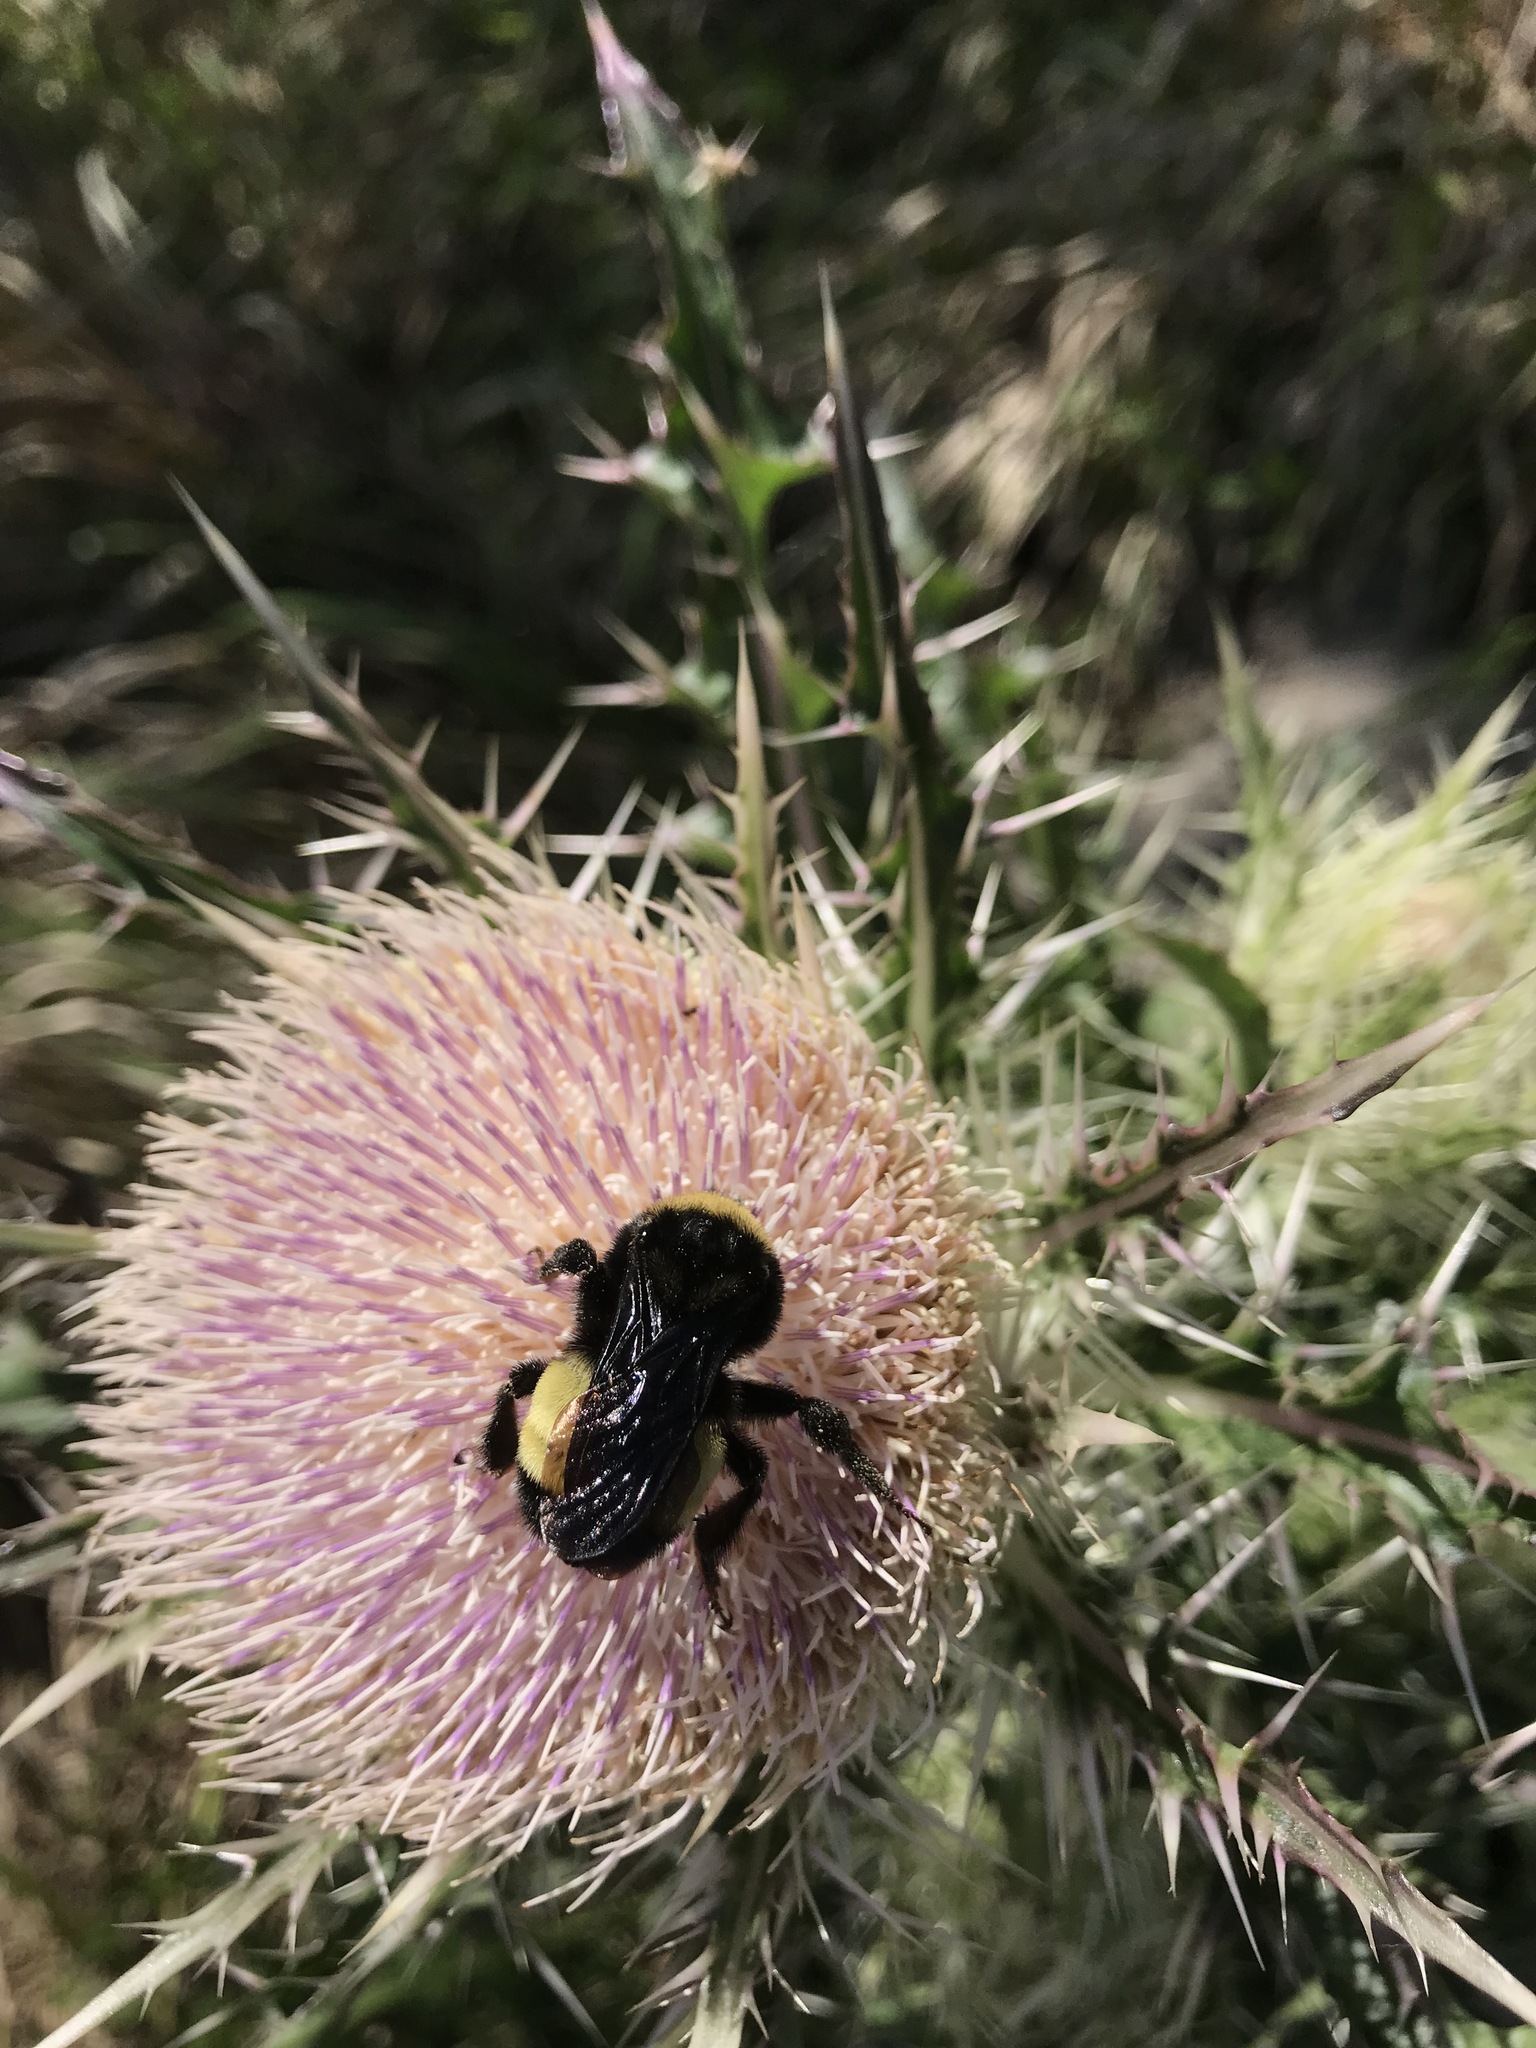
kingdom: Animalia
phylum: Arthropoda
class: Insecta
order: Hymenoptera
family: Apidae
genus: Bombus
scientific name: Bombus pensylvanicus
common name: Bumble bee
